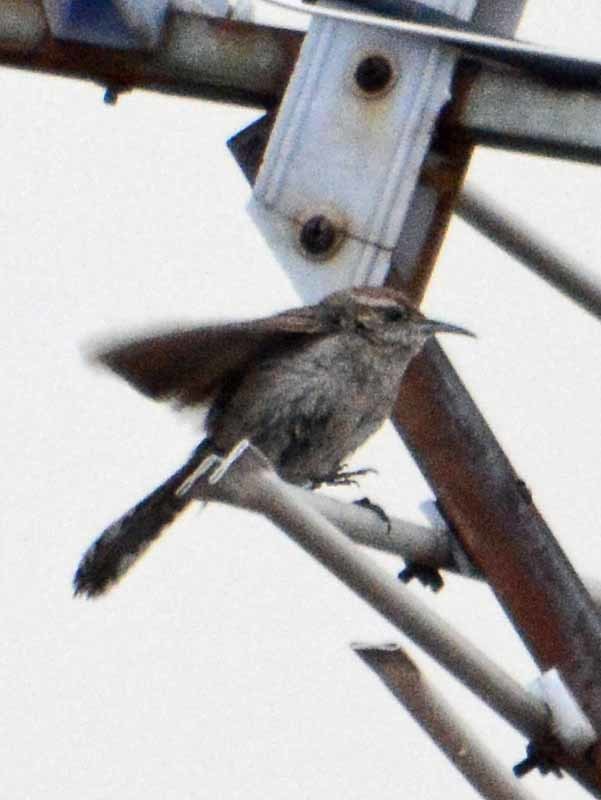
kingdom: Animalia
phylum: Chordata
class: Aves
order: Passeriformes
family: Troglodytidae
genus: Thryomanes
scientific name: Thryomanes bewickii
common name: Bewick's wren
